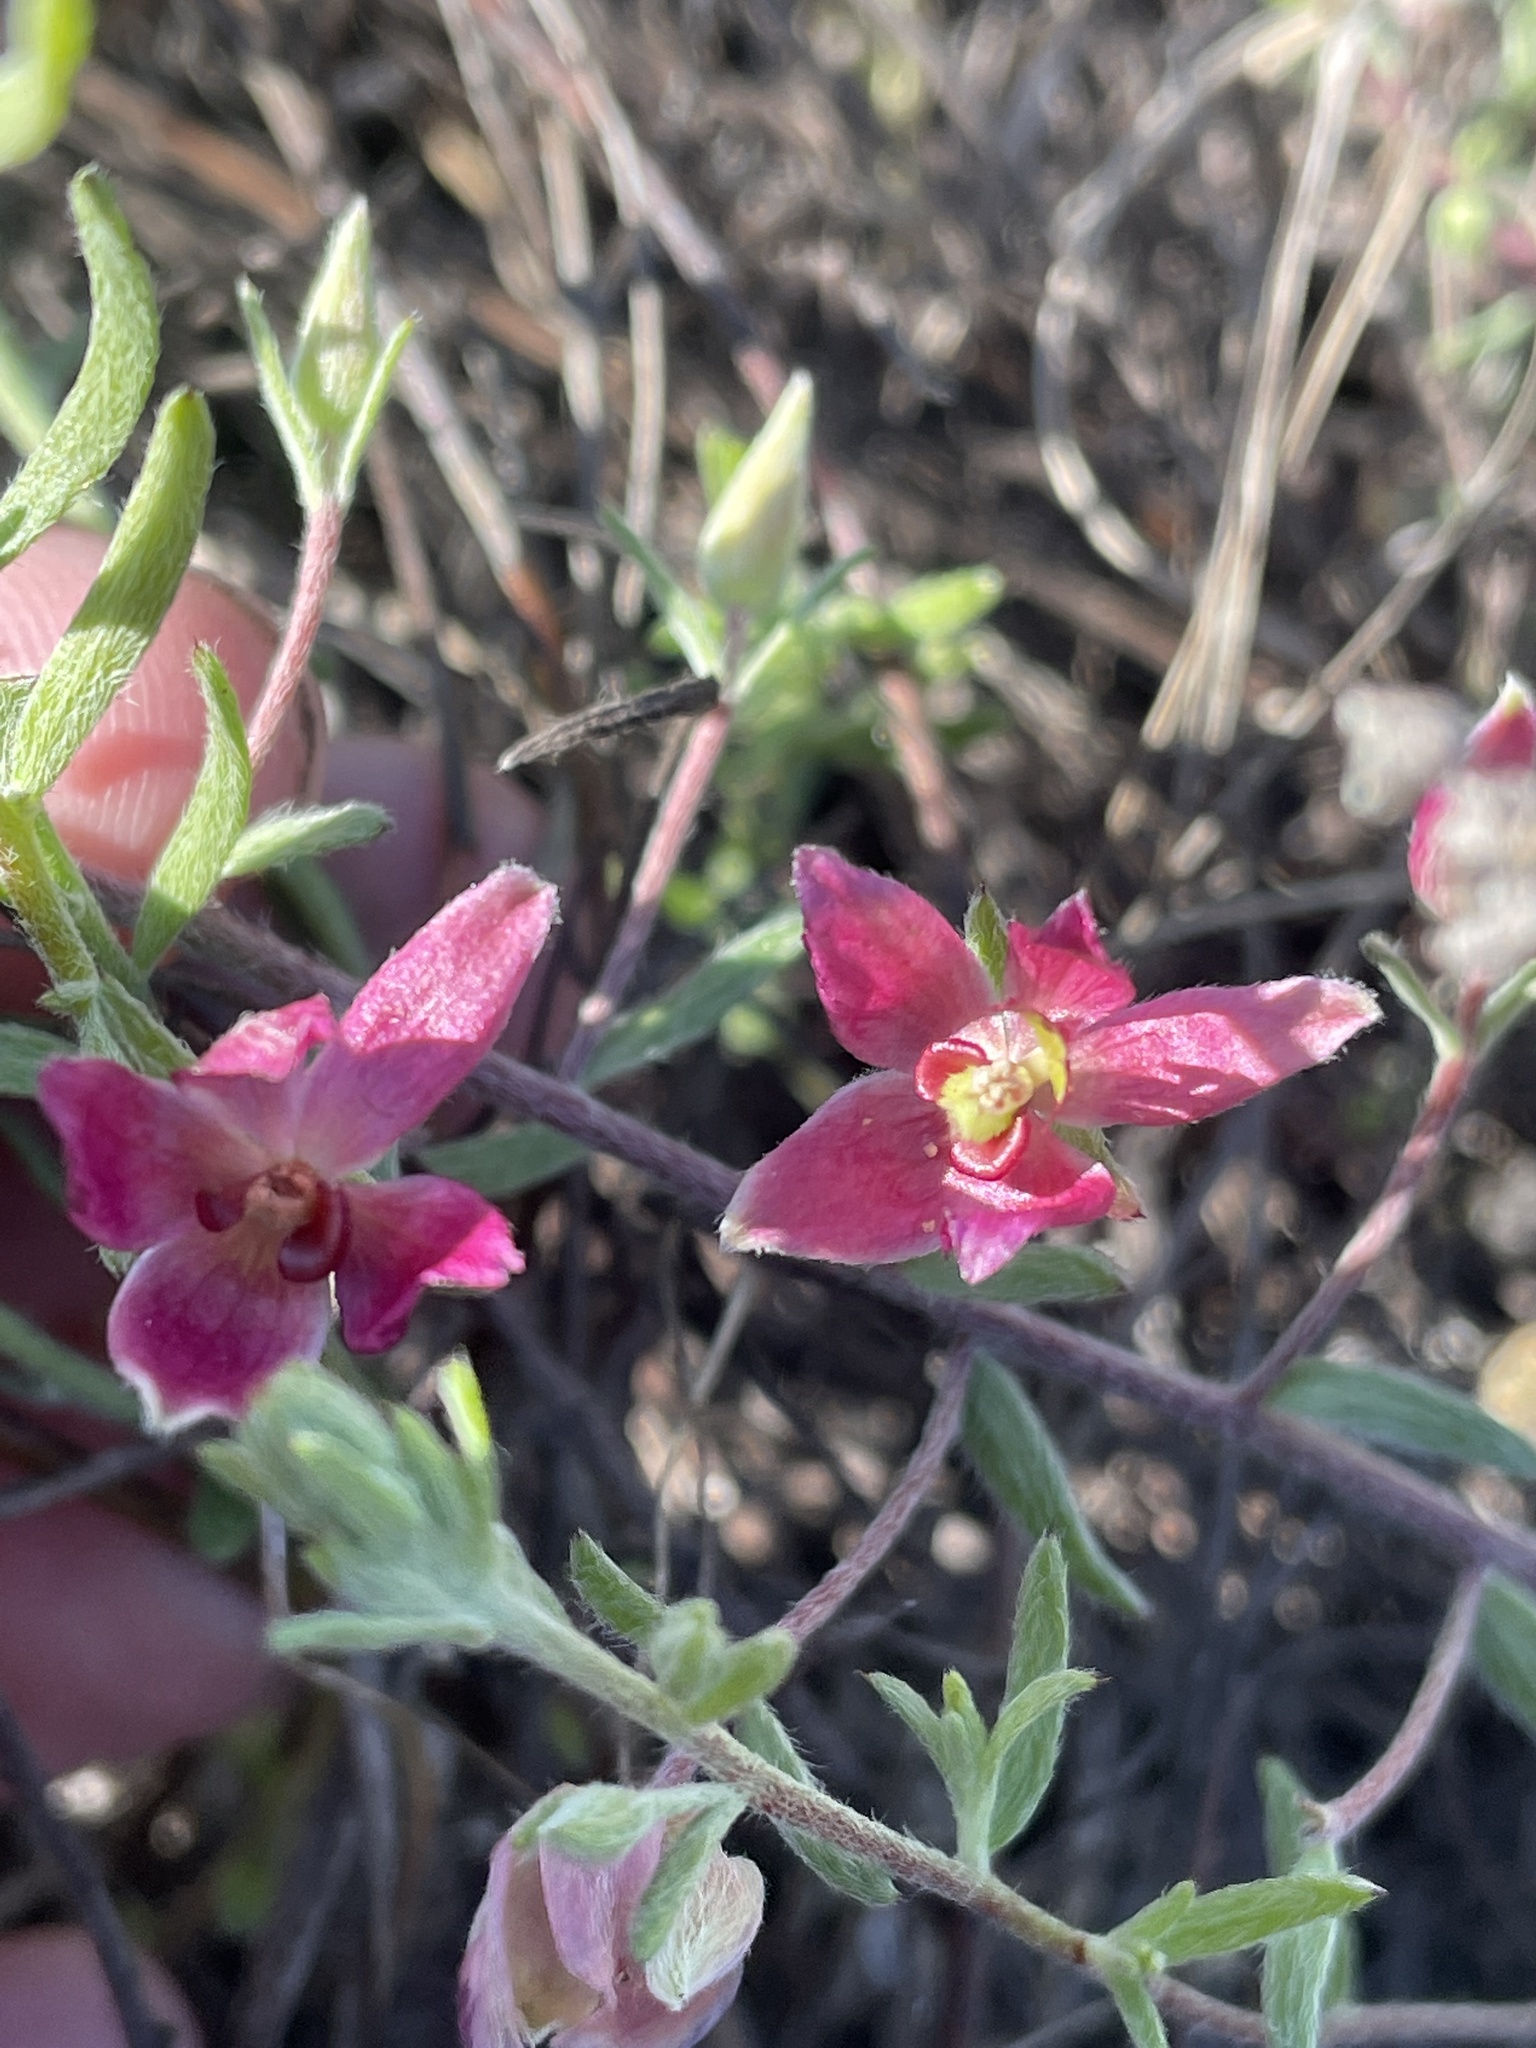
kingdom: Plantae
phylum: Tracheophyta
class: Magnoliopsida
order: Zygophyllales
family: Krameriaceae
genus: Krameria
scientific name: Krameria lanceolata
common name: Ratany
